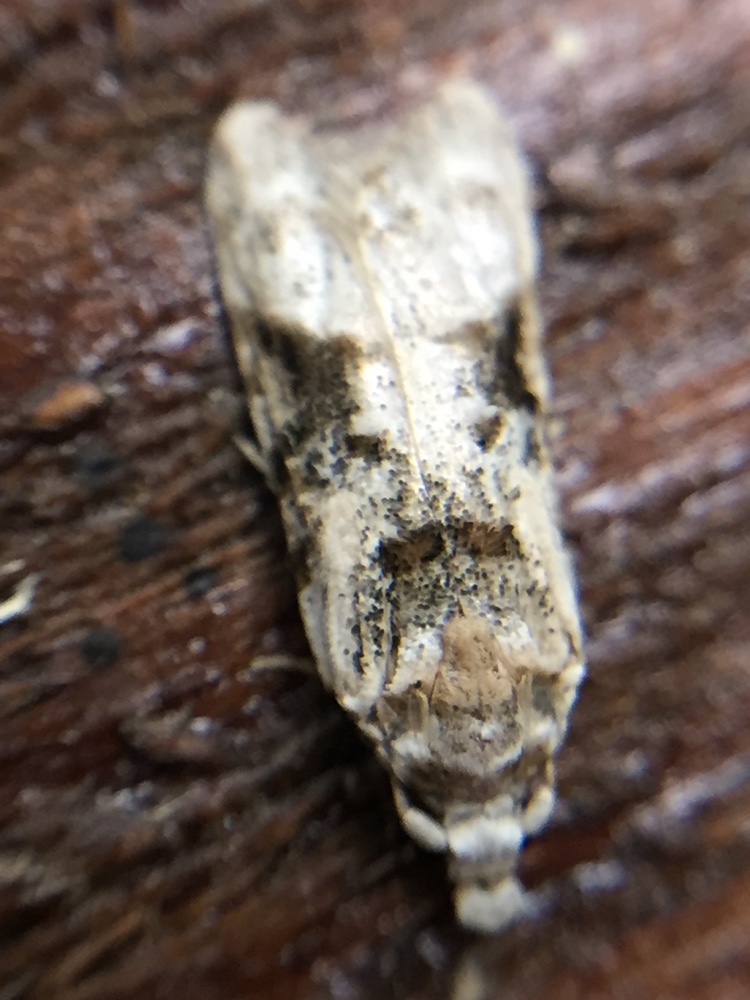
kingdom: Animalia
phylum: Arthropoda
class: Insecta
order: Lepidoptera
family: Carposinidae
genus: Coscinoptycha
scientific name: Coscinoptycha improbana
